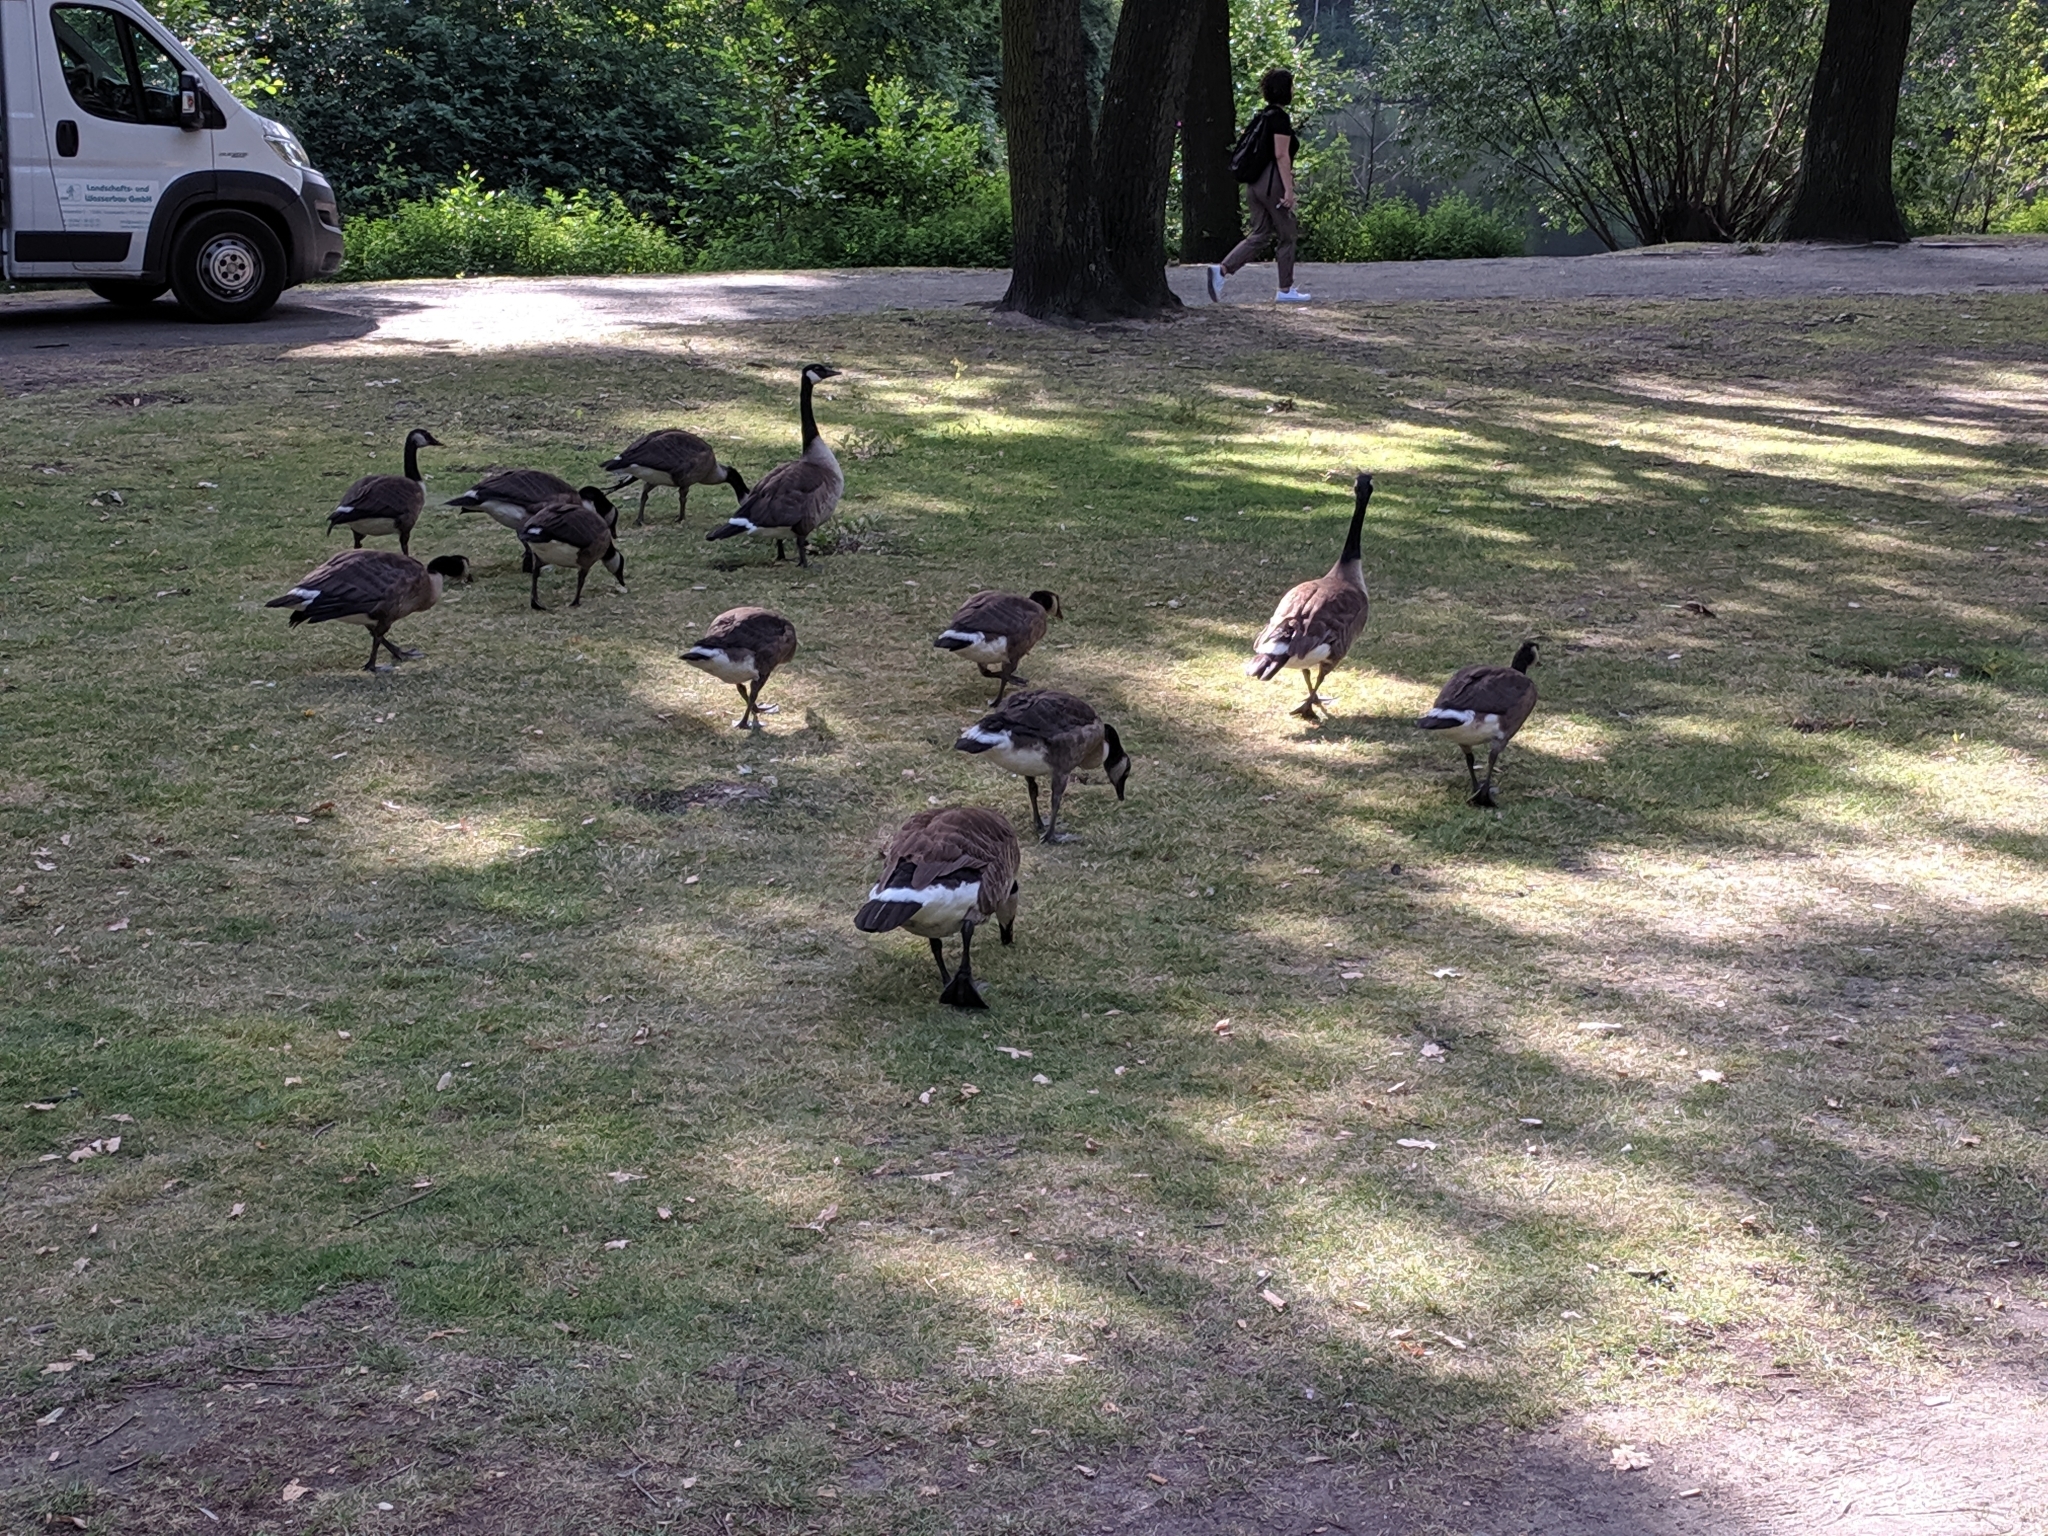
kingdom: Animalia
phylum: Chordata
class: Aves
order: Anseriformes
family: Anatidae
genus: Branta
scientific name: Branta canadensis
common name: Canada goose
